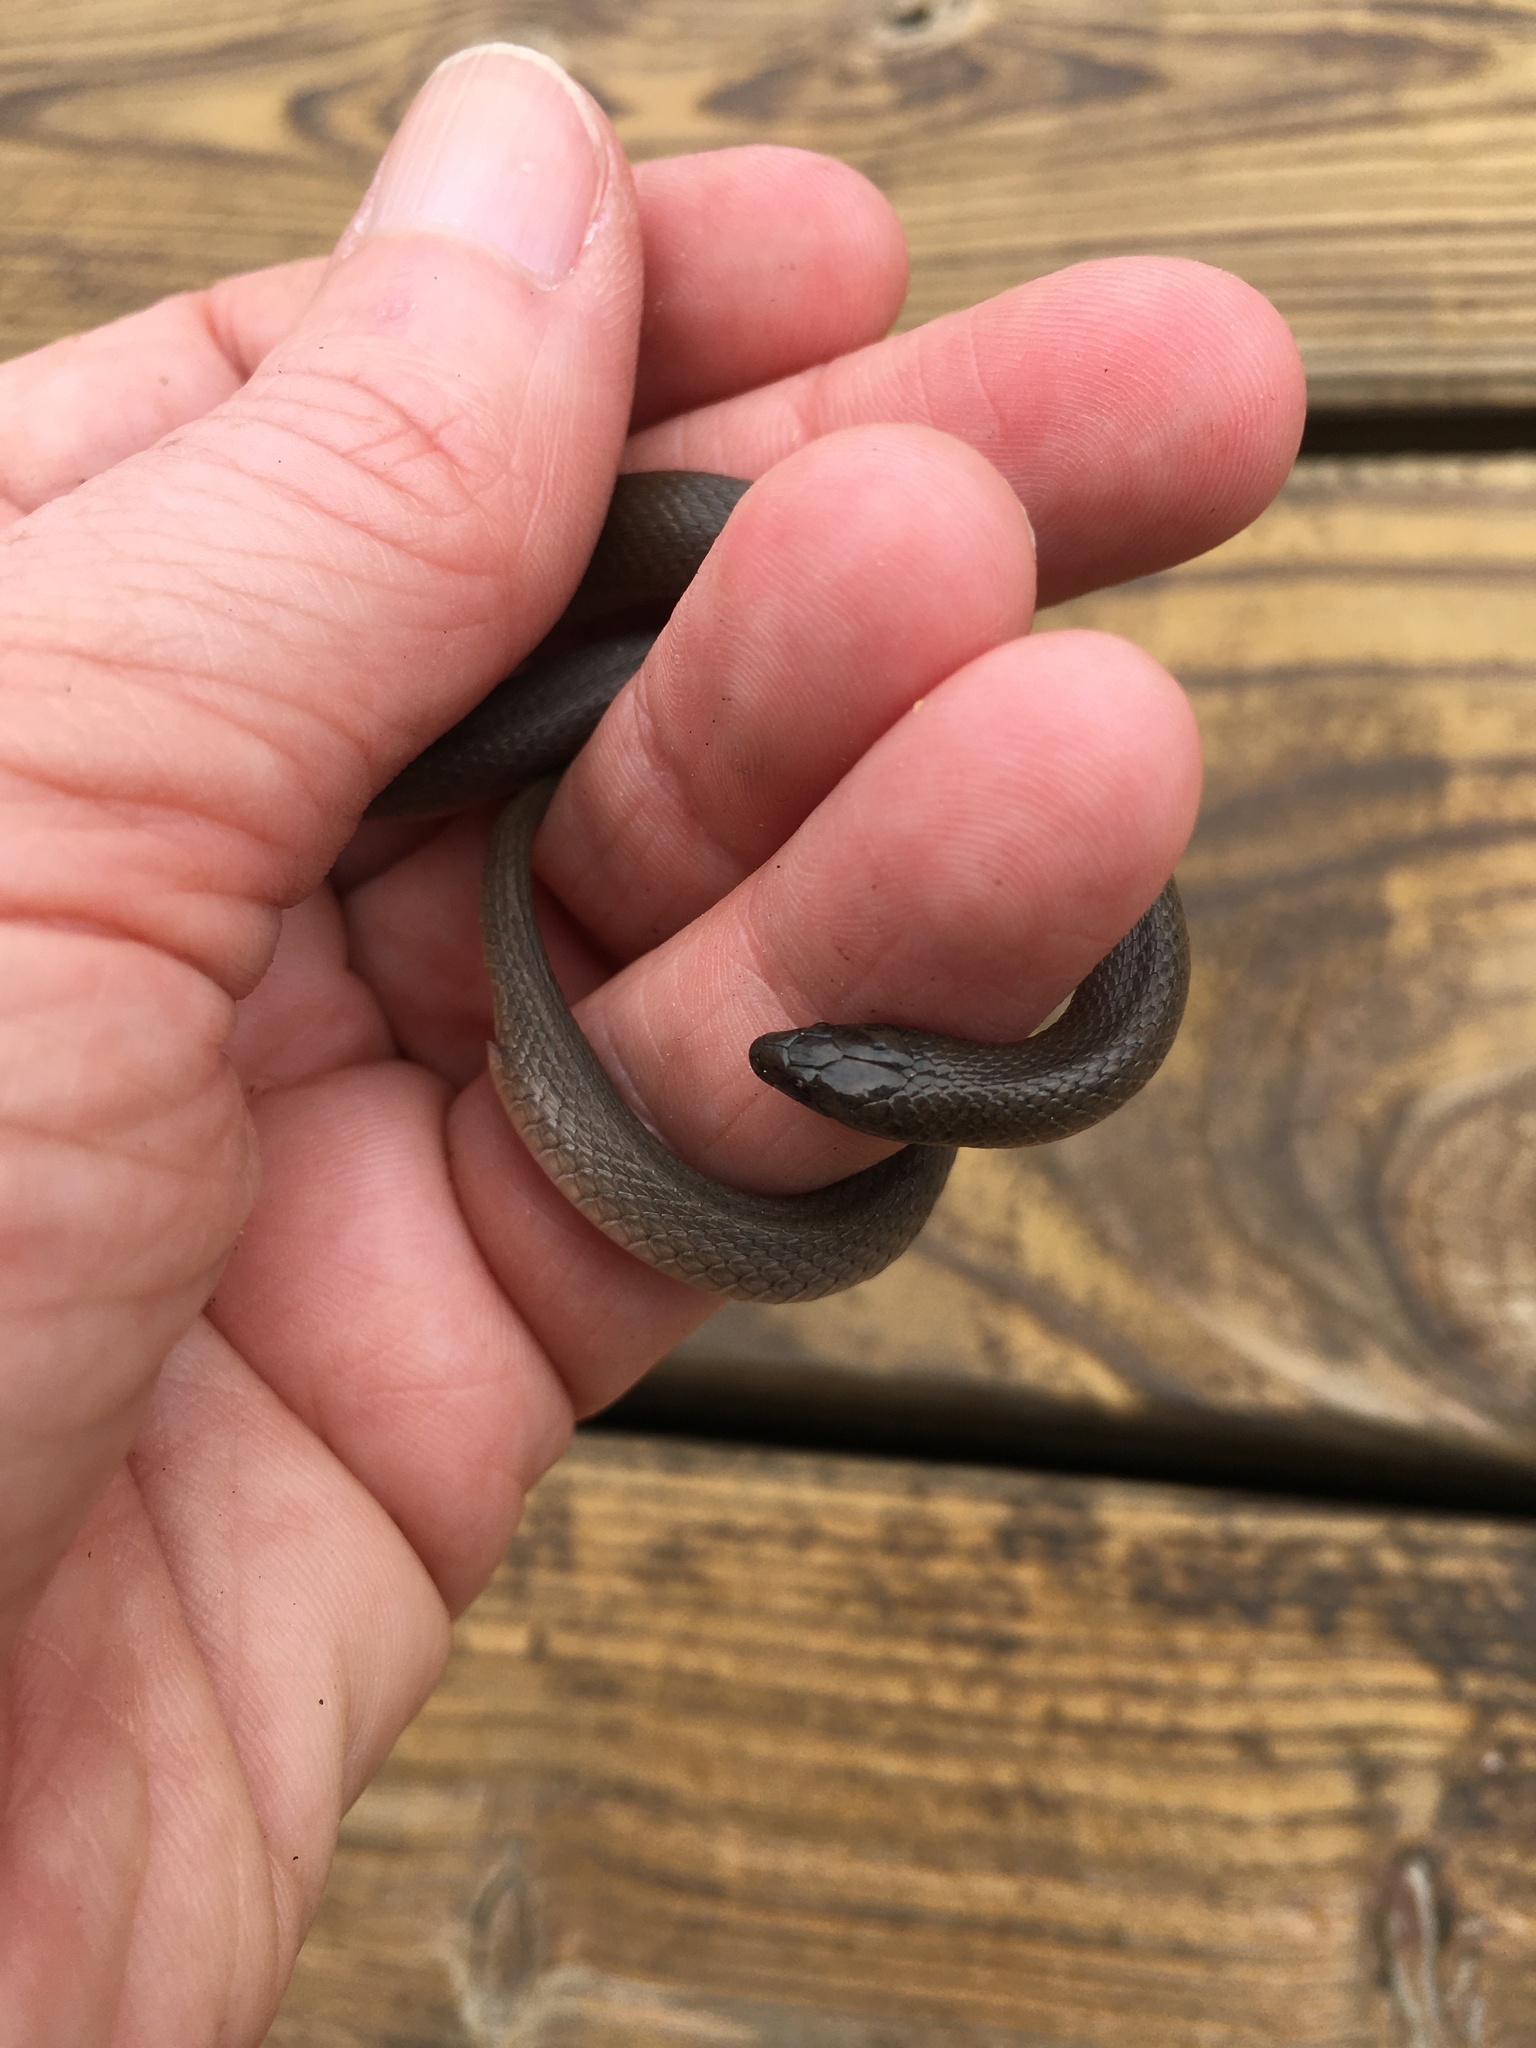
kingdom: Animalia
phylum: Chordata
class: Squamata
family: Colubridae
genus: Haldea
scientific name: Haldea striatula
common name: Rough earth snake
